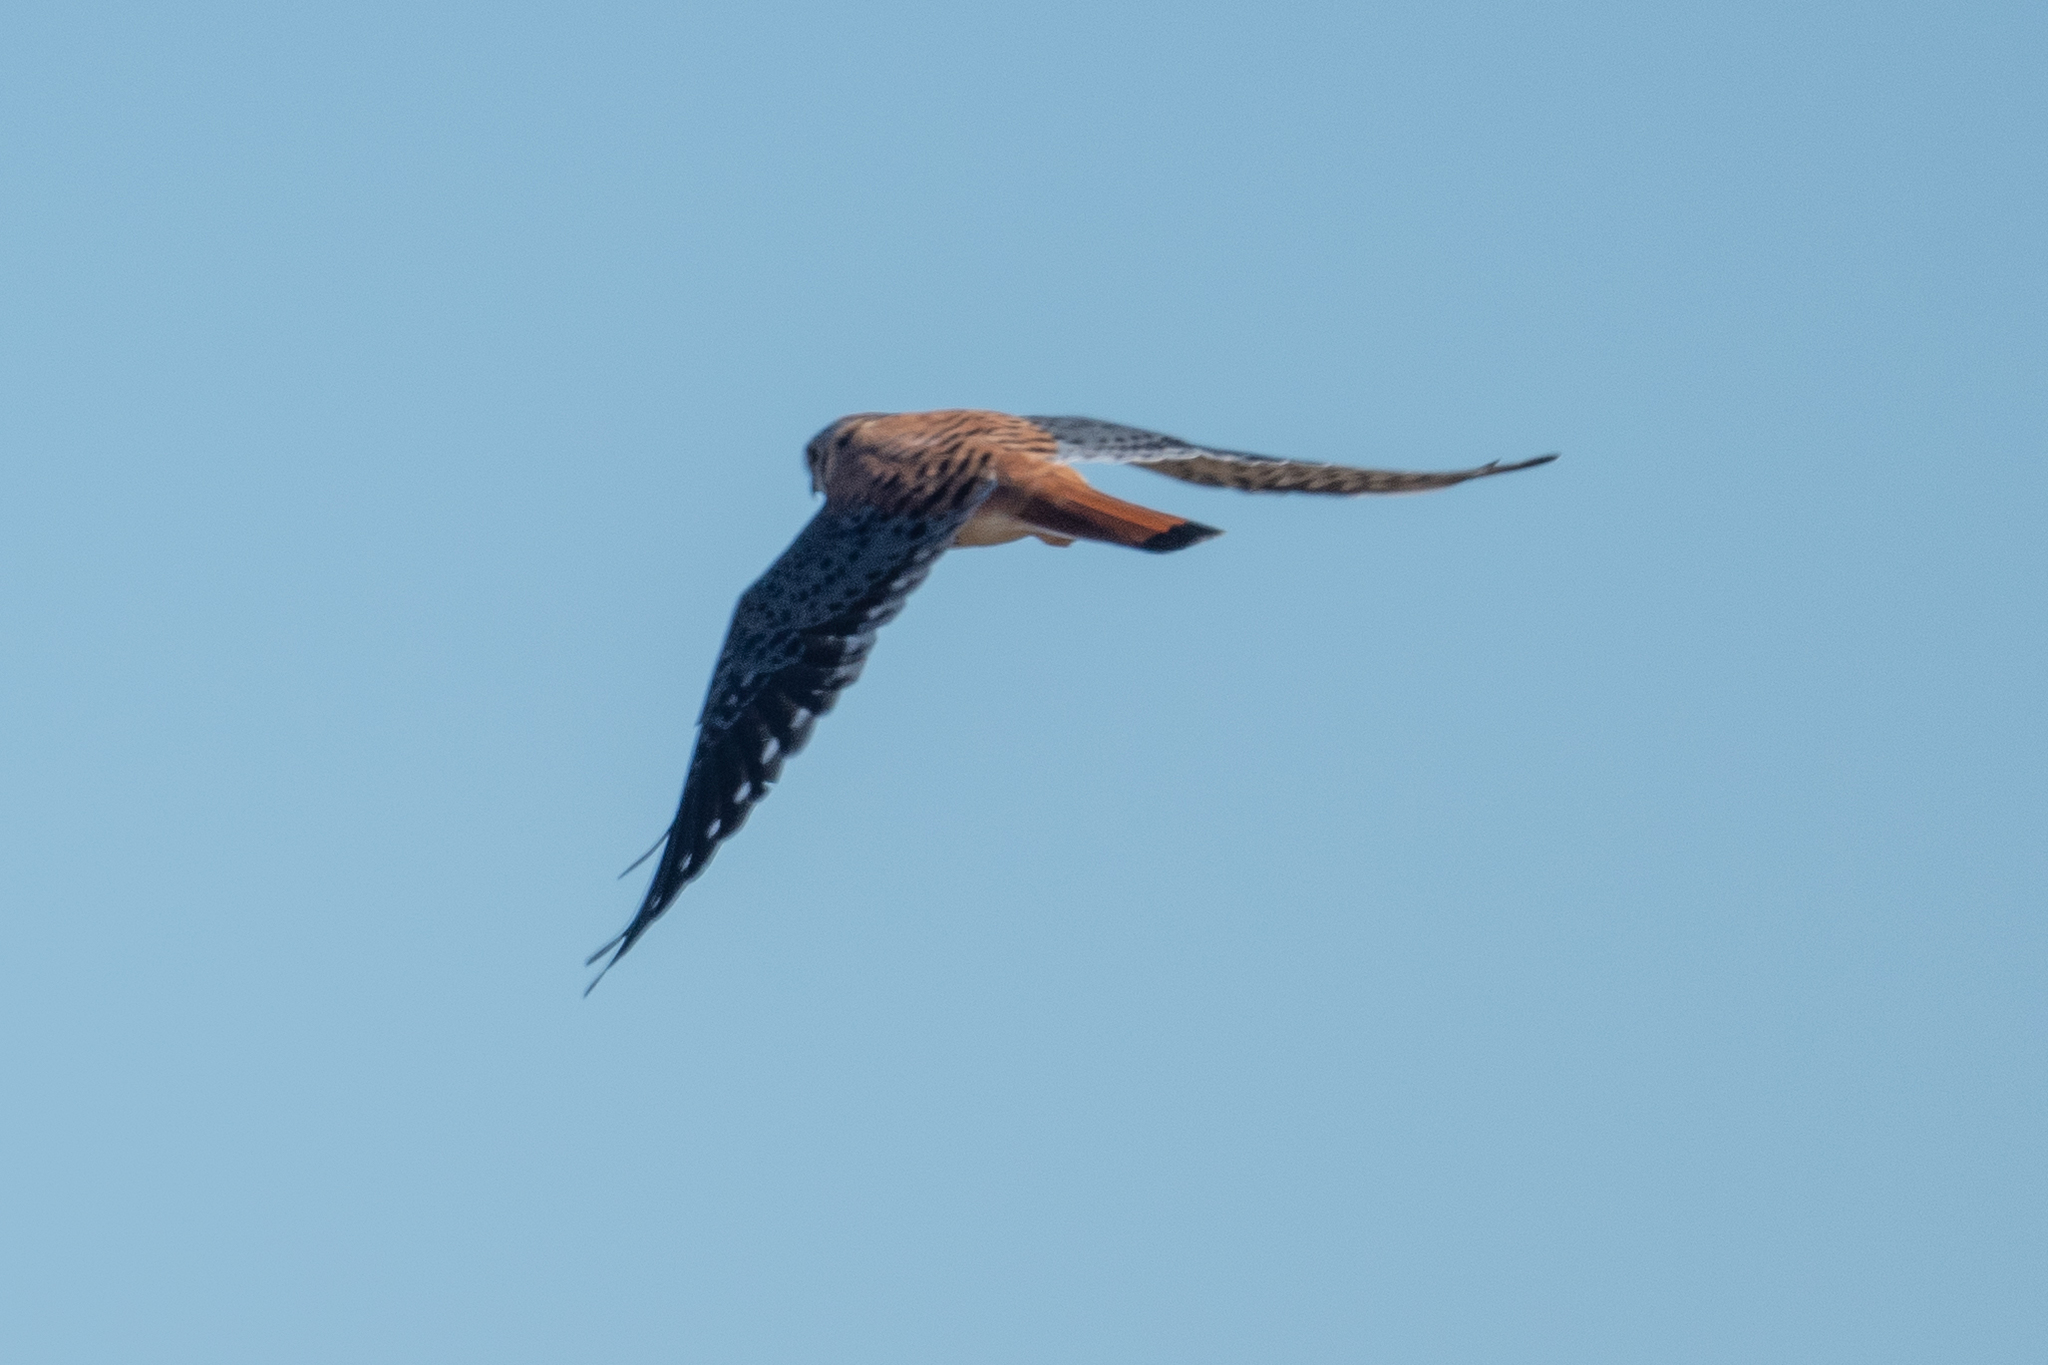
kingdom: Animalia
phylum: Chordata
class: Aves
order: Falconiformes
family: Falconidae
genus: Falco
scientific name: Falco sparverius
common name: American kestrel
